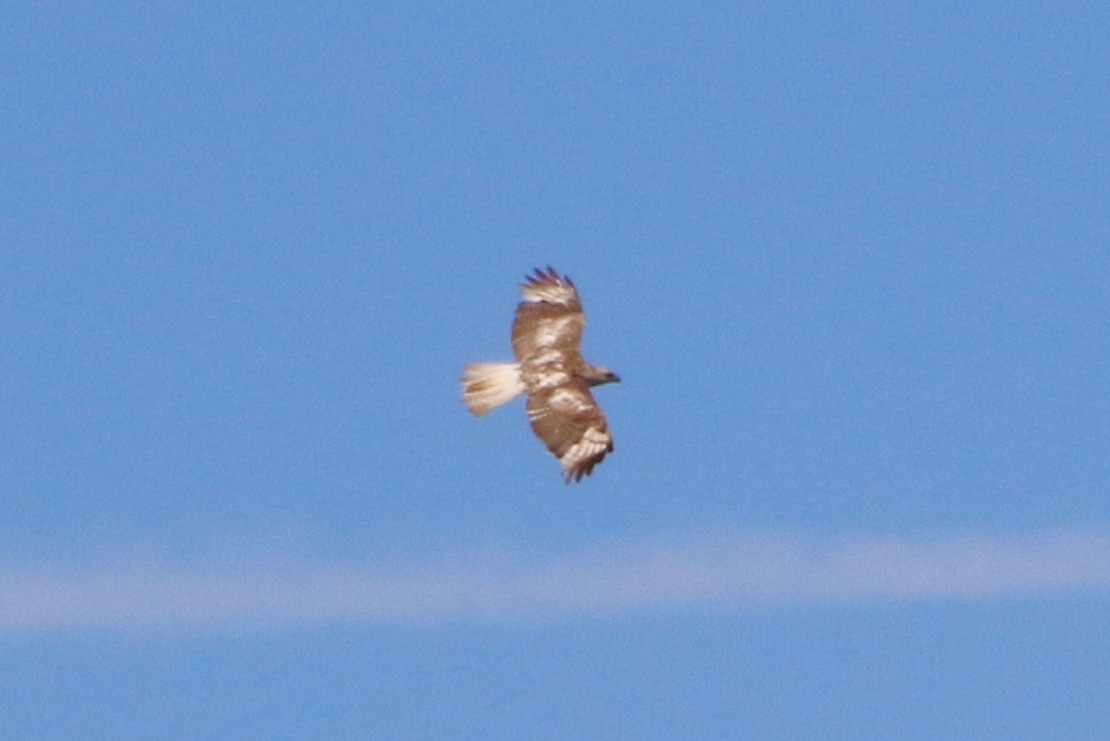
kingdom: Animalia
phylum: Chordata
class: Aves
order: Accipitriformes
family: Accipitridae
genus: Buteo
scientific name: Buteo jamaicensis
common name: Red-tailed hawk
